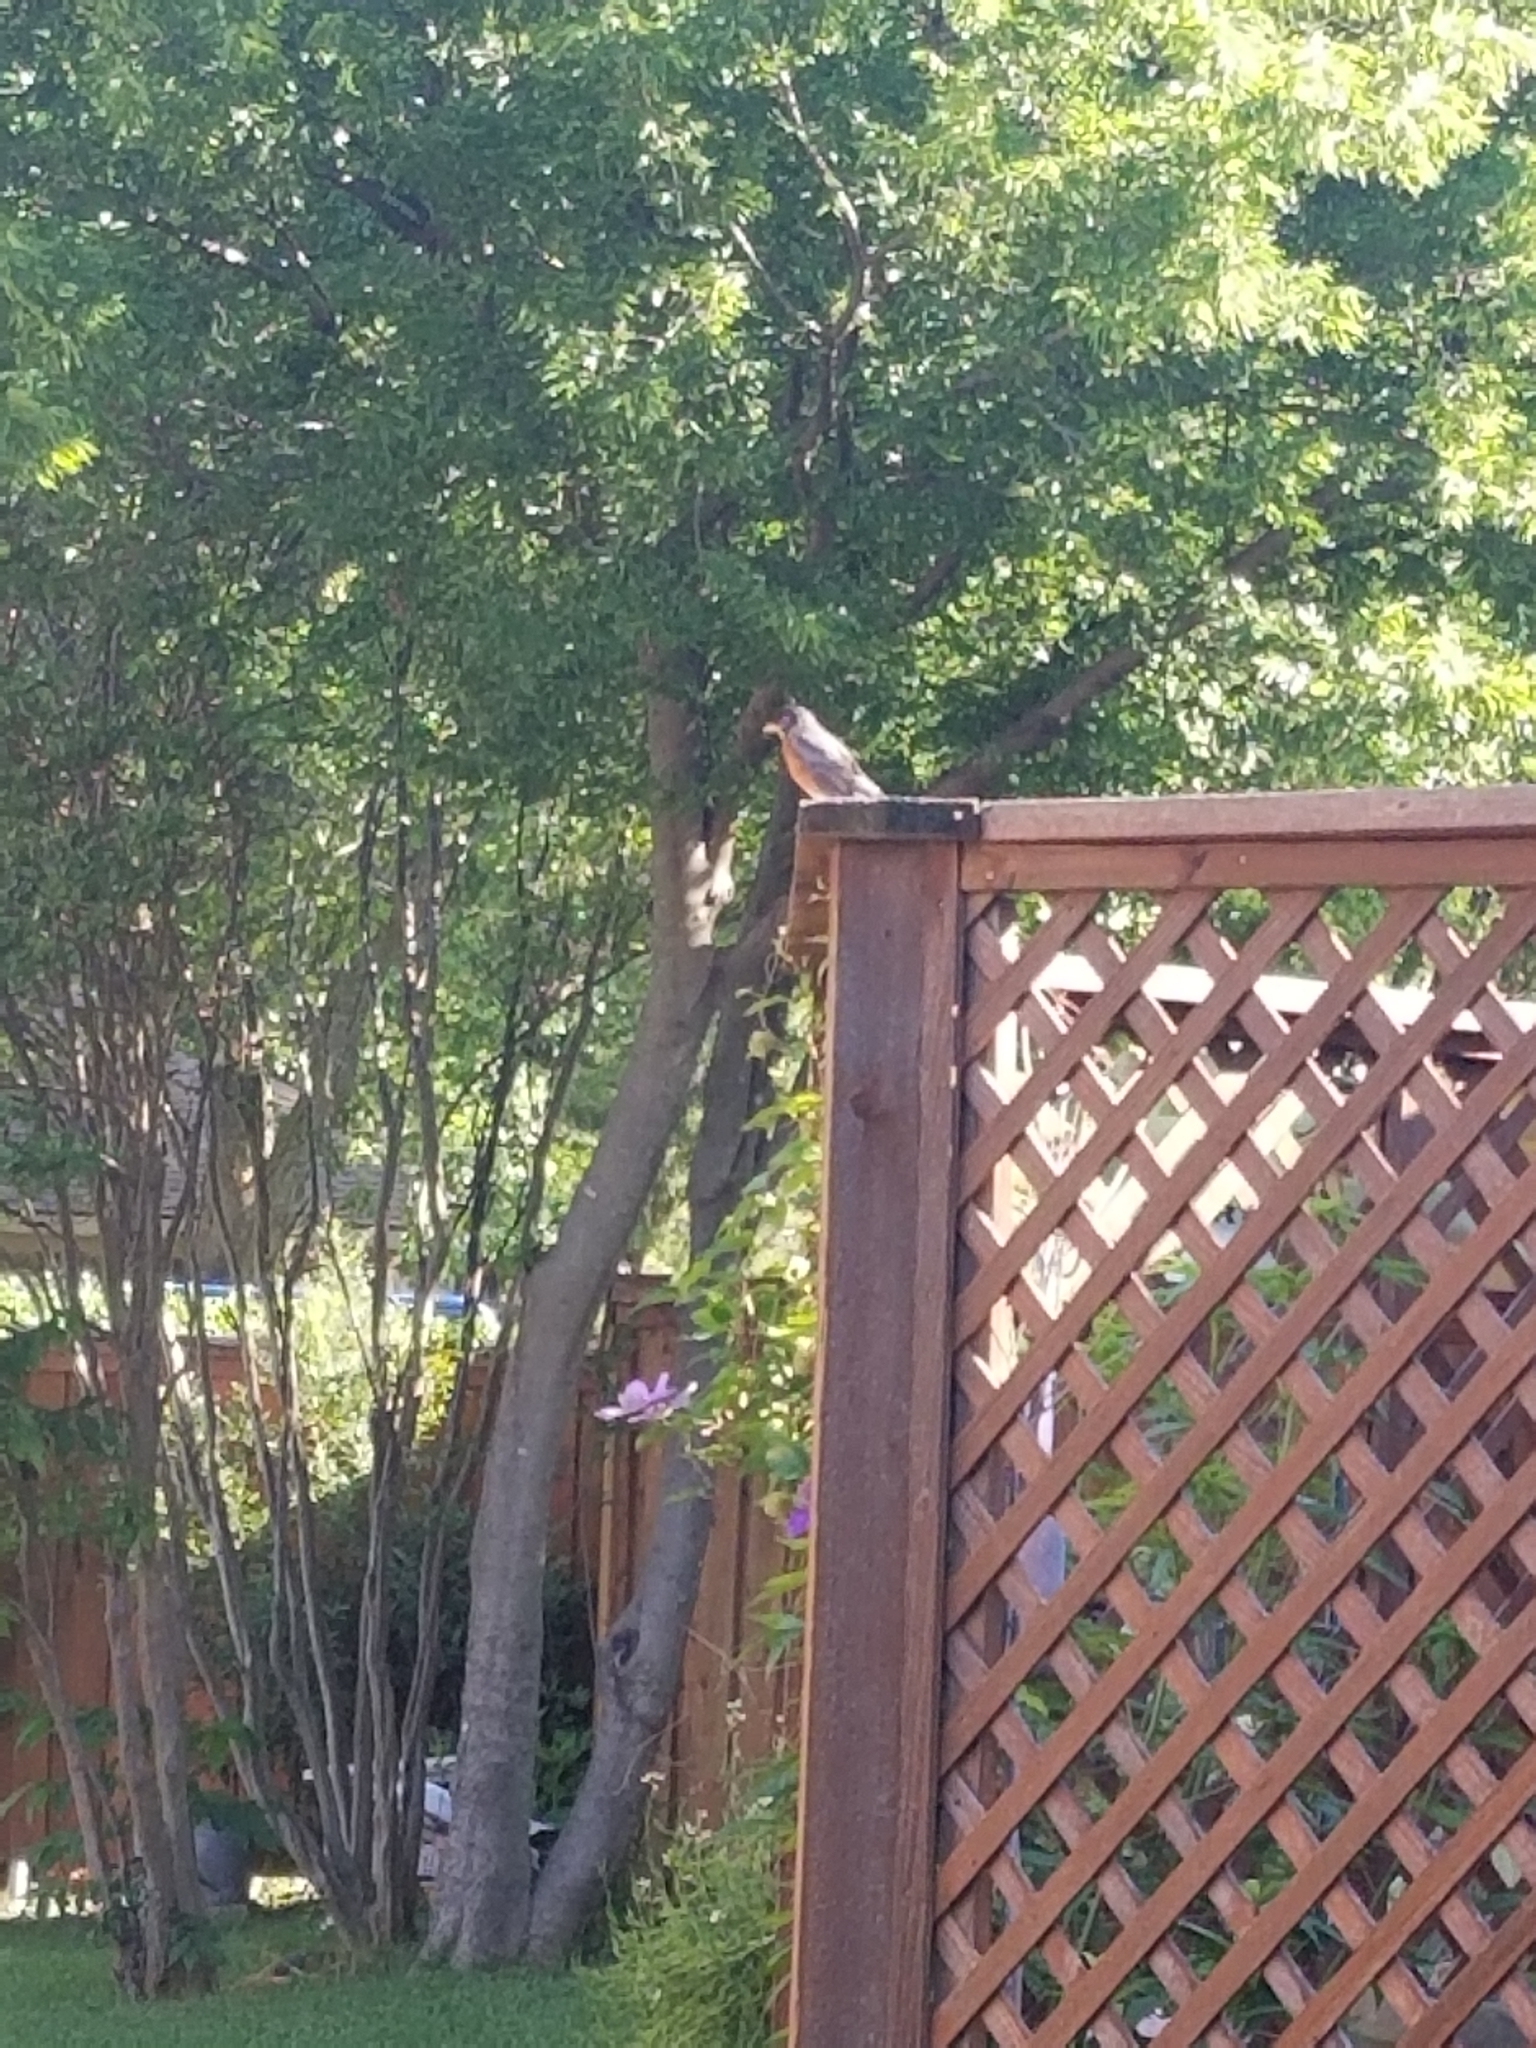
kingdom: Animalia
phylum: Chordata
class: Aves
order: Passeriformes
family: Turdidae
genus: Turdus
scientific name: Turdus migratorius
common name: American robin
